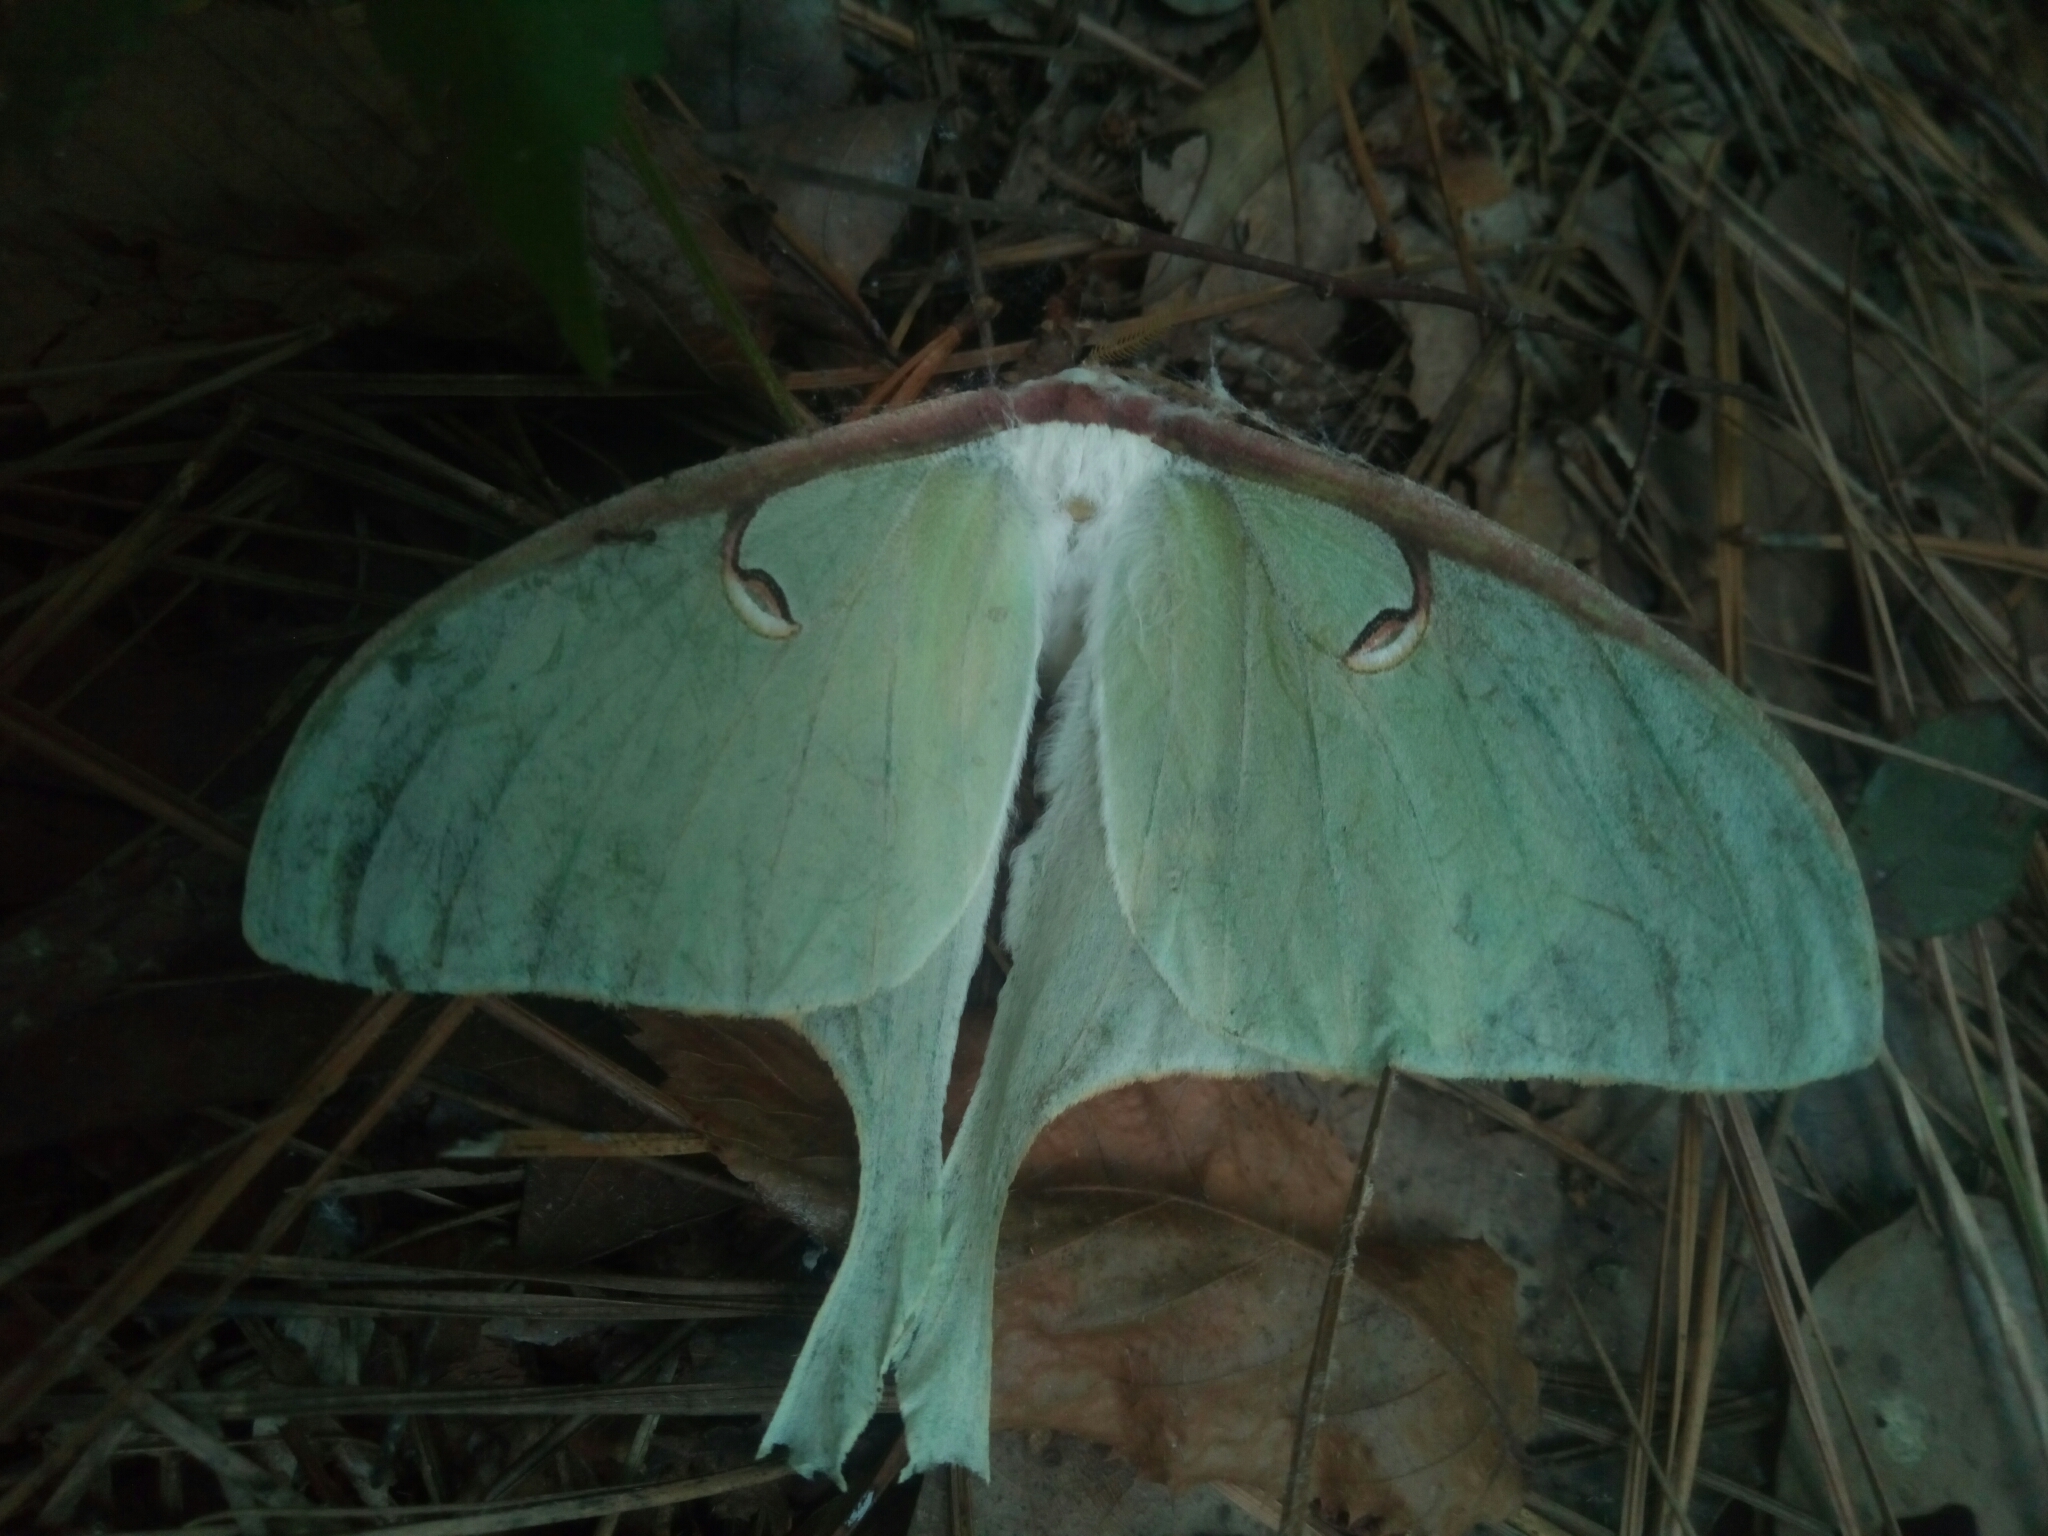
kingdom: Animalia
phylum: Arthropoda
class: Insecta
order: Lepidoptera
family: Saturniidae
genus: Actias
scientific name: Actias luna
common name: Luna moth
